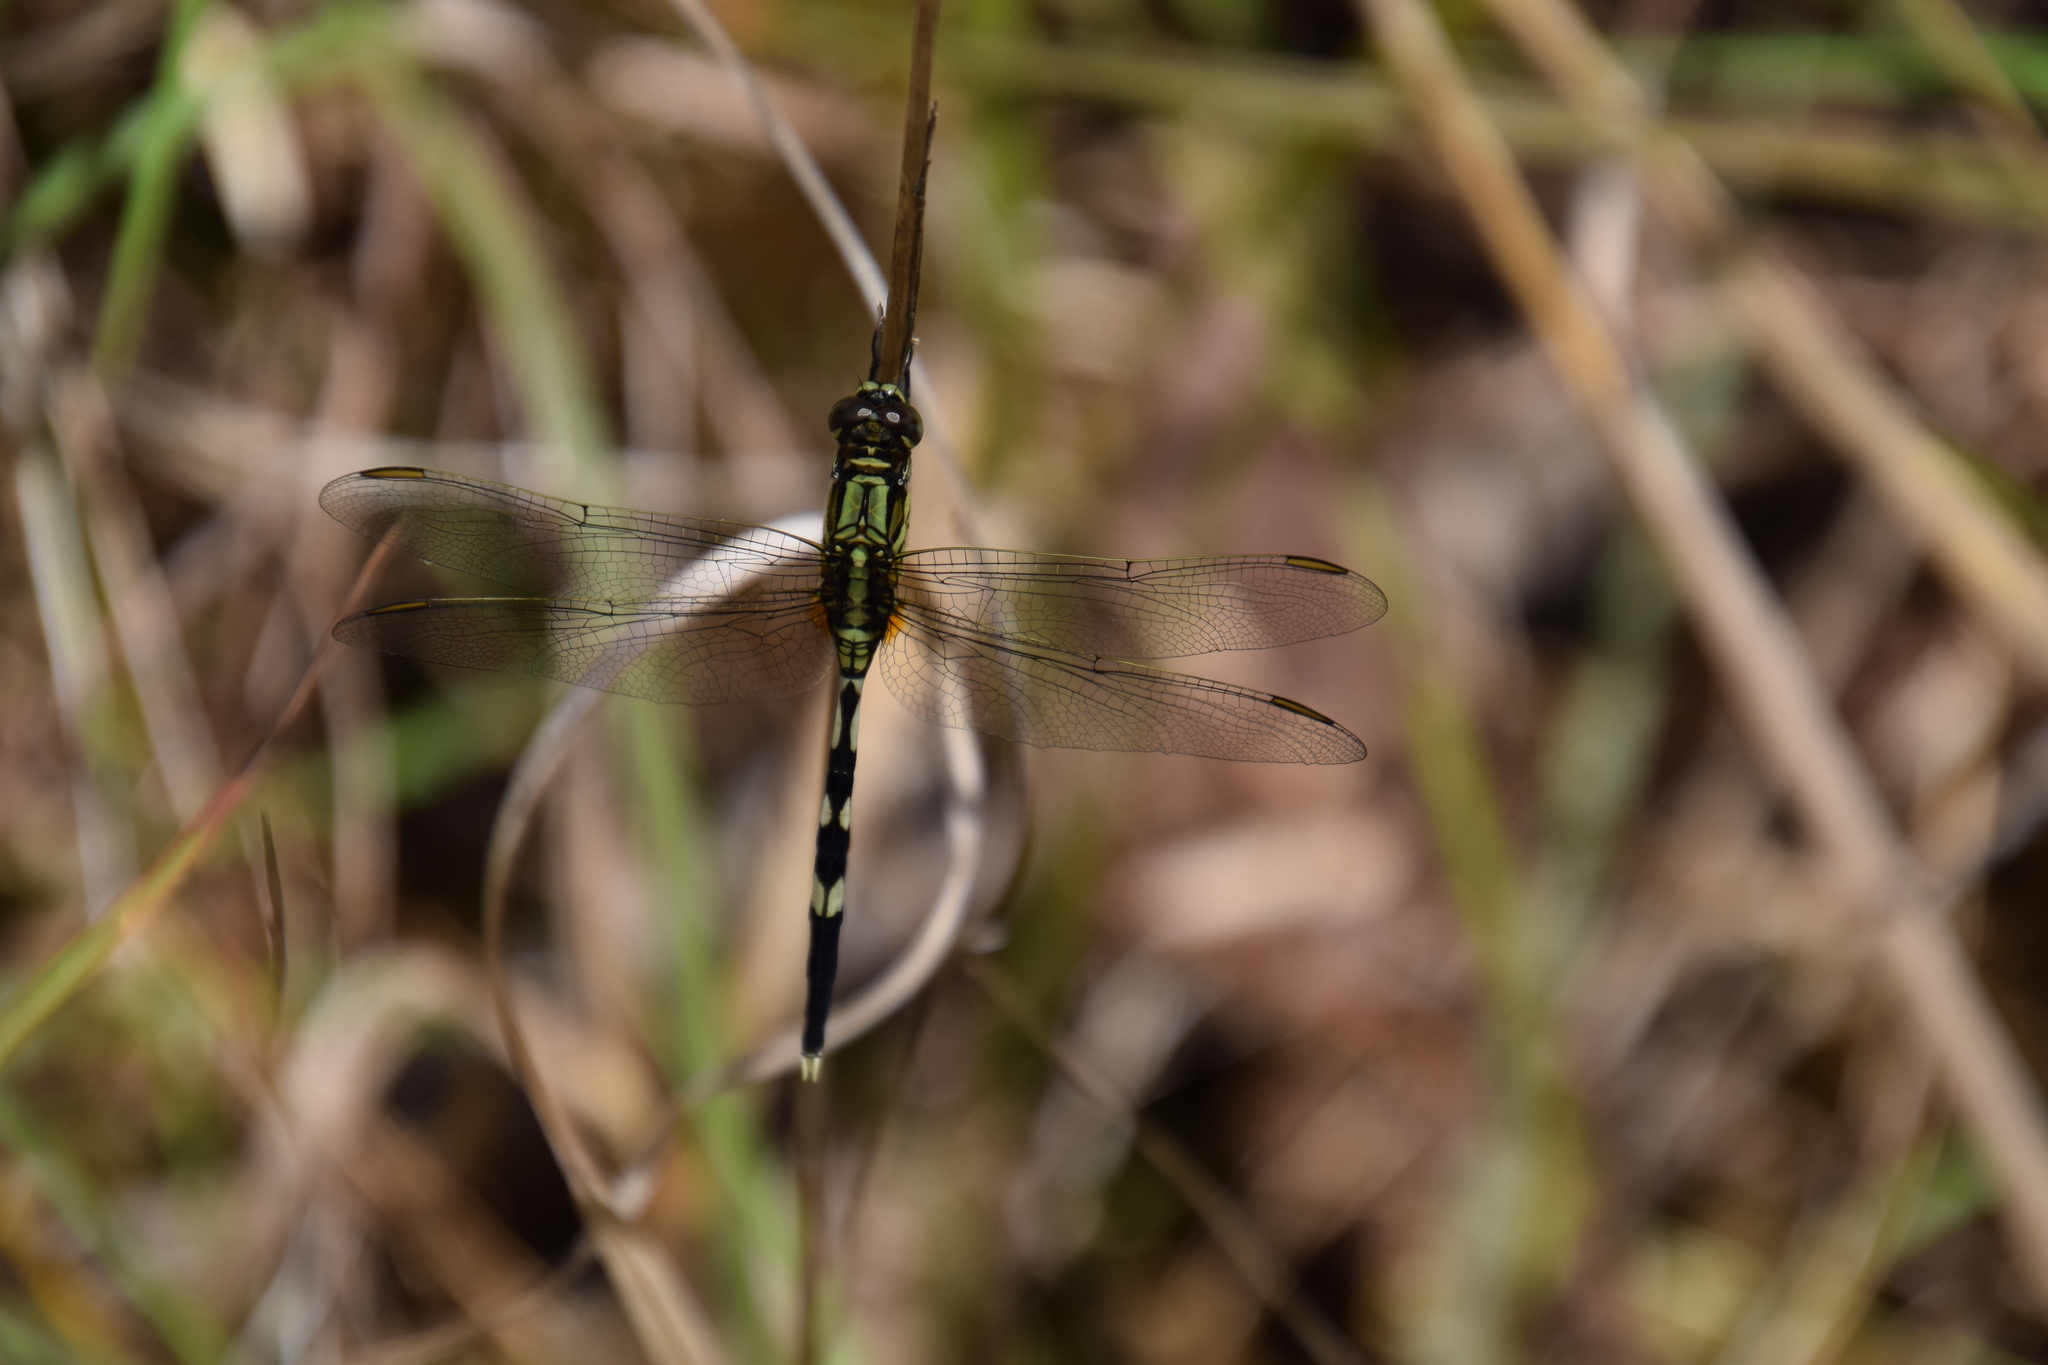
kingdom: Animalia
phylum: Arthropoda
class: Insecta
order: Odonata
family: Libellulidae
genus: Orthetrum
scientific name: Orthetrum sabina
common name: Slender skimmer
